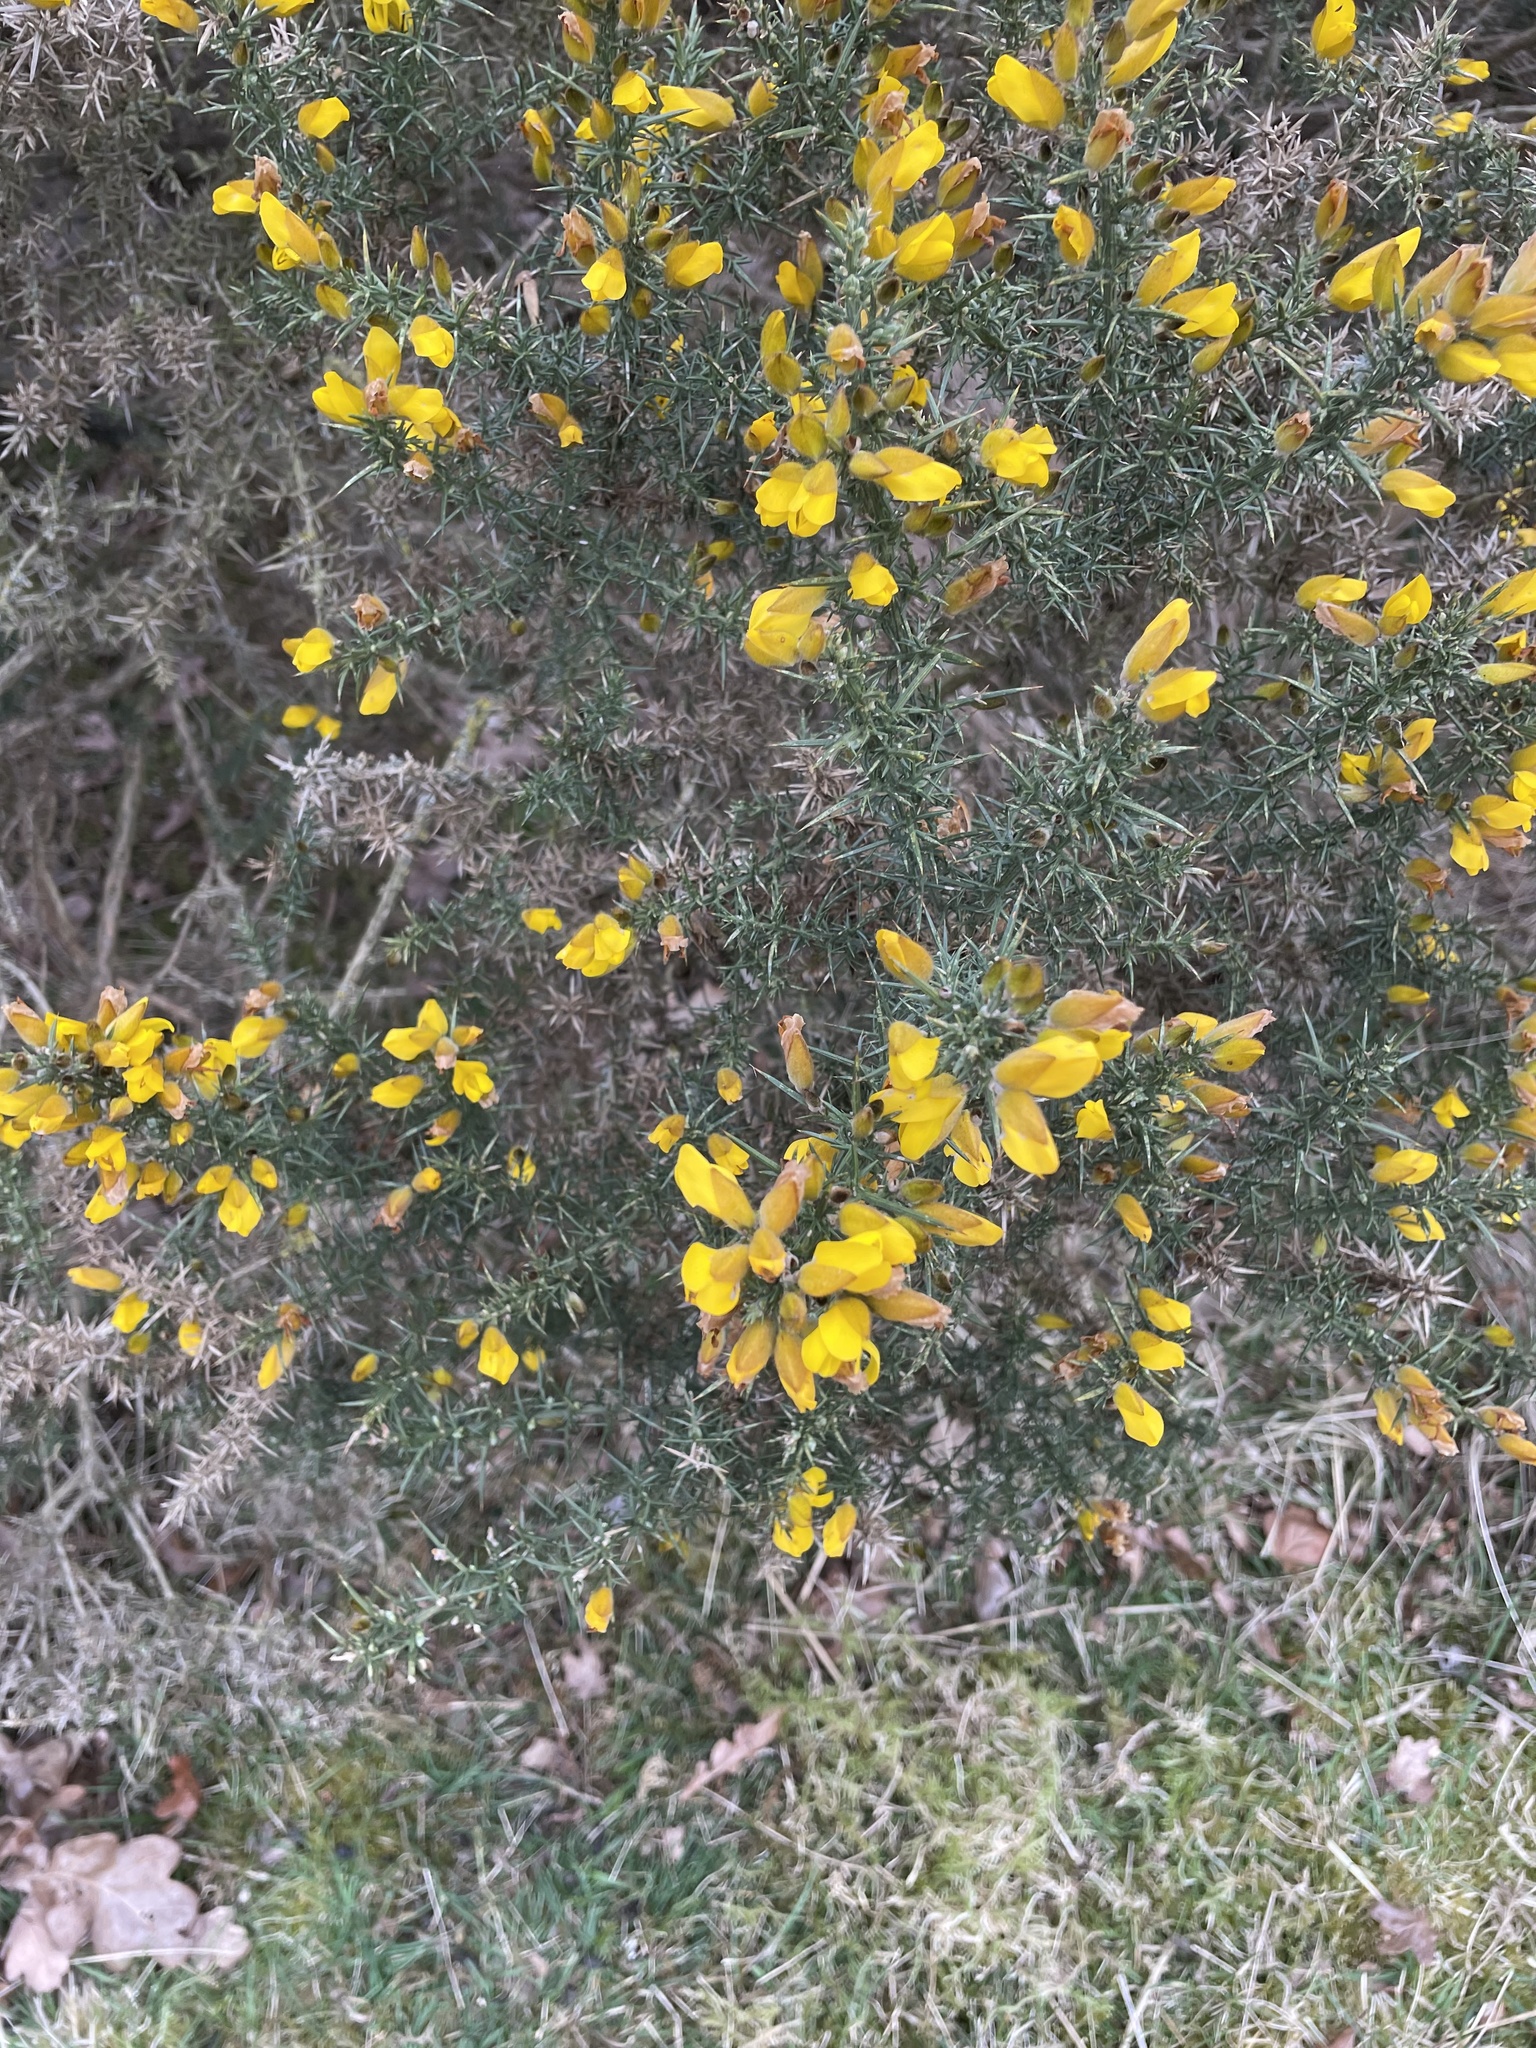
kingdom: Plantae
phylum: Tracheophyta
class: Magnoliopsida
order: Fabales
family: Fabaceae
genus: Ulex
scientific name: Ulex europaeus
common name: Common gorse
